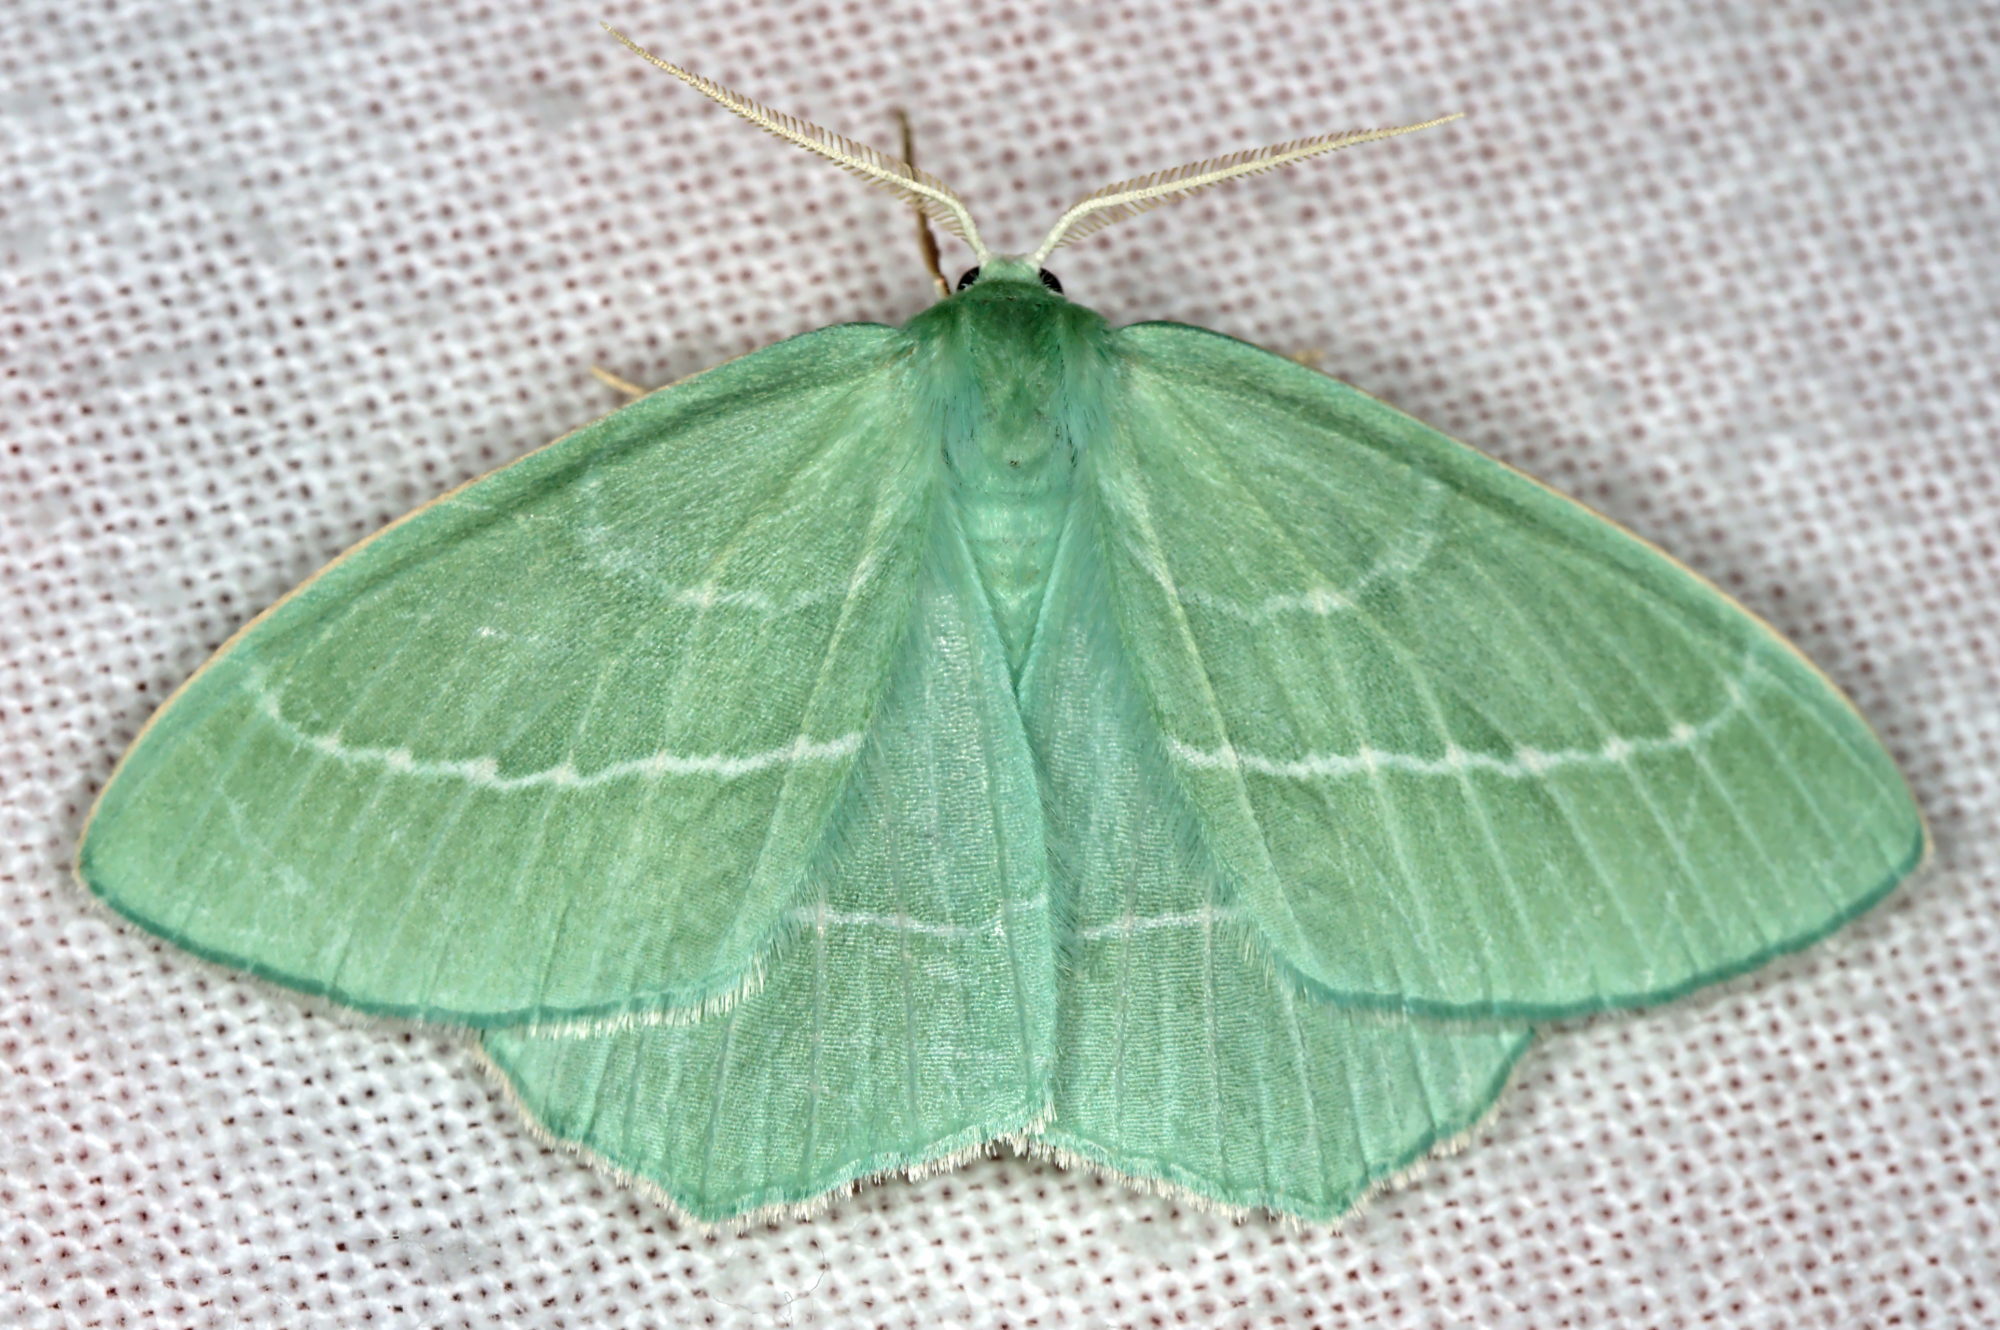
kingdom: Animalia
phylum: Arthropoda
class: Insecta
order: Lepidoptera
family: Geometridae
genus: Hemistola
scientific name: Hemistola chrysoprasaria
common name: Small emerald
